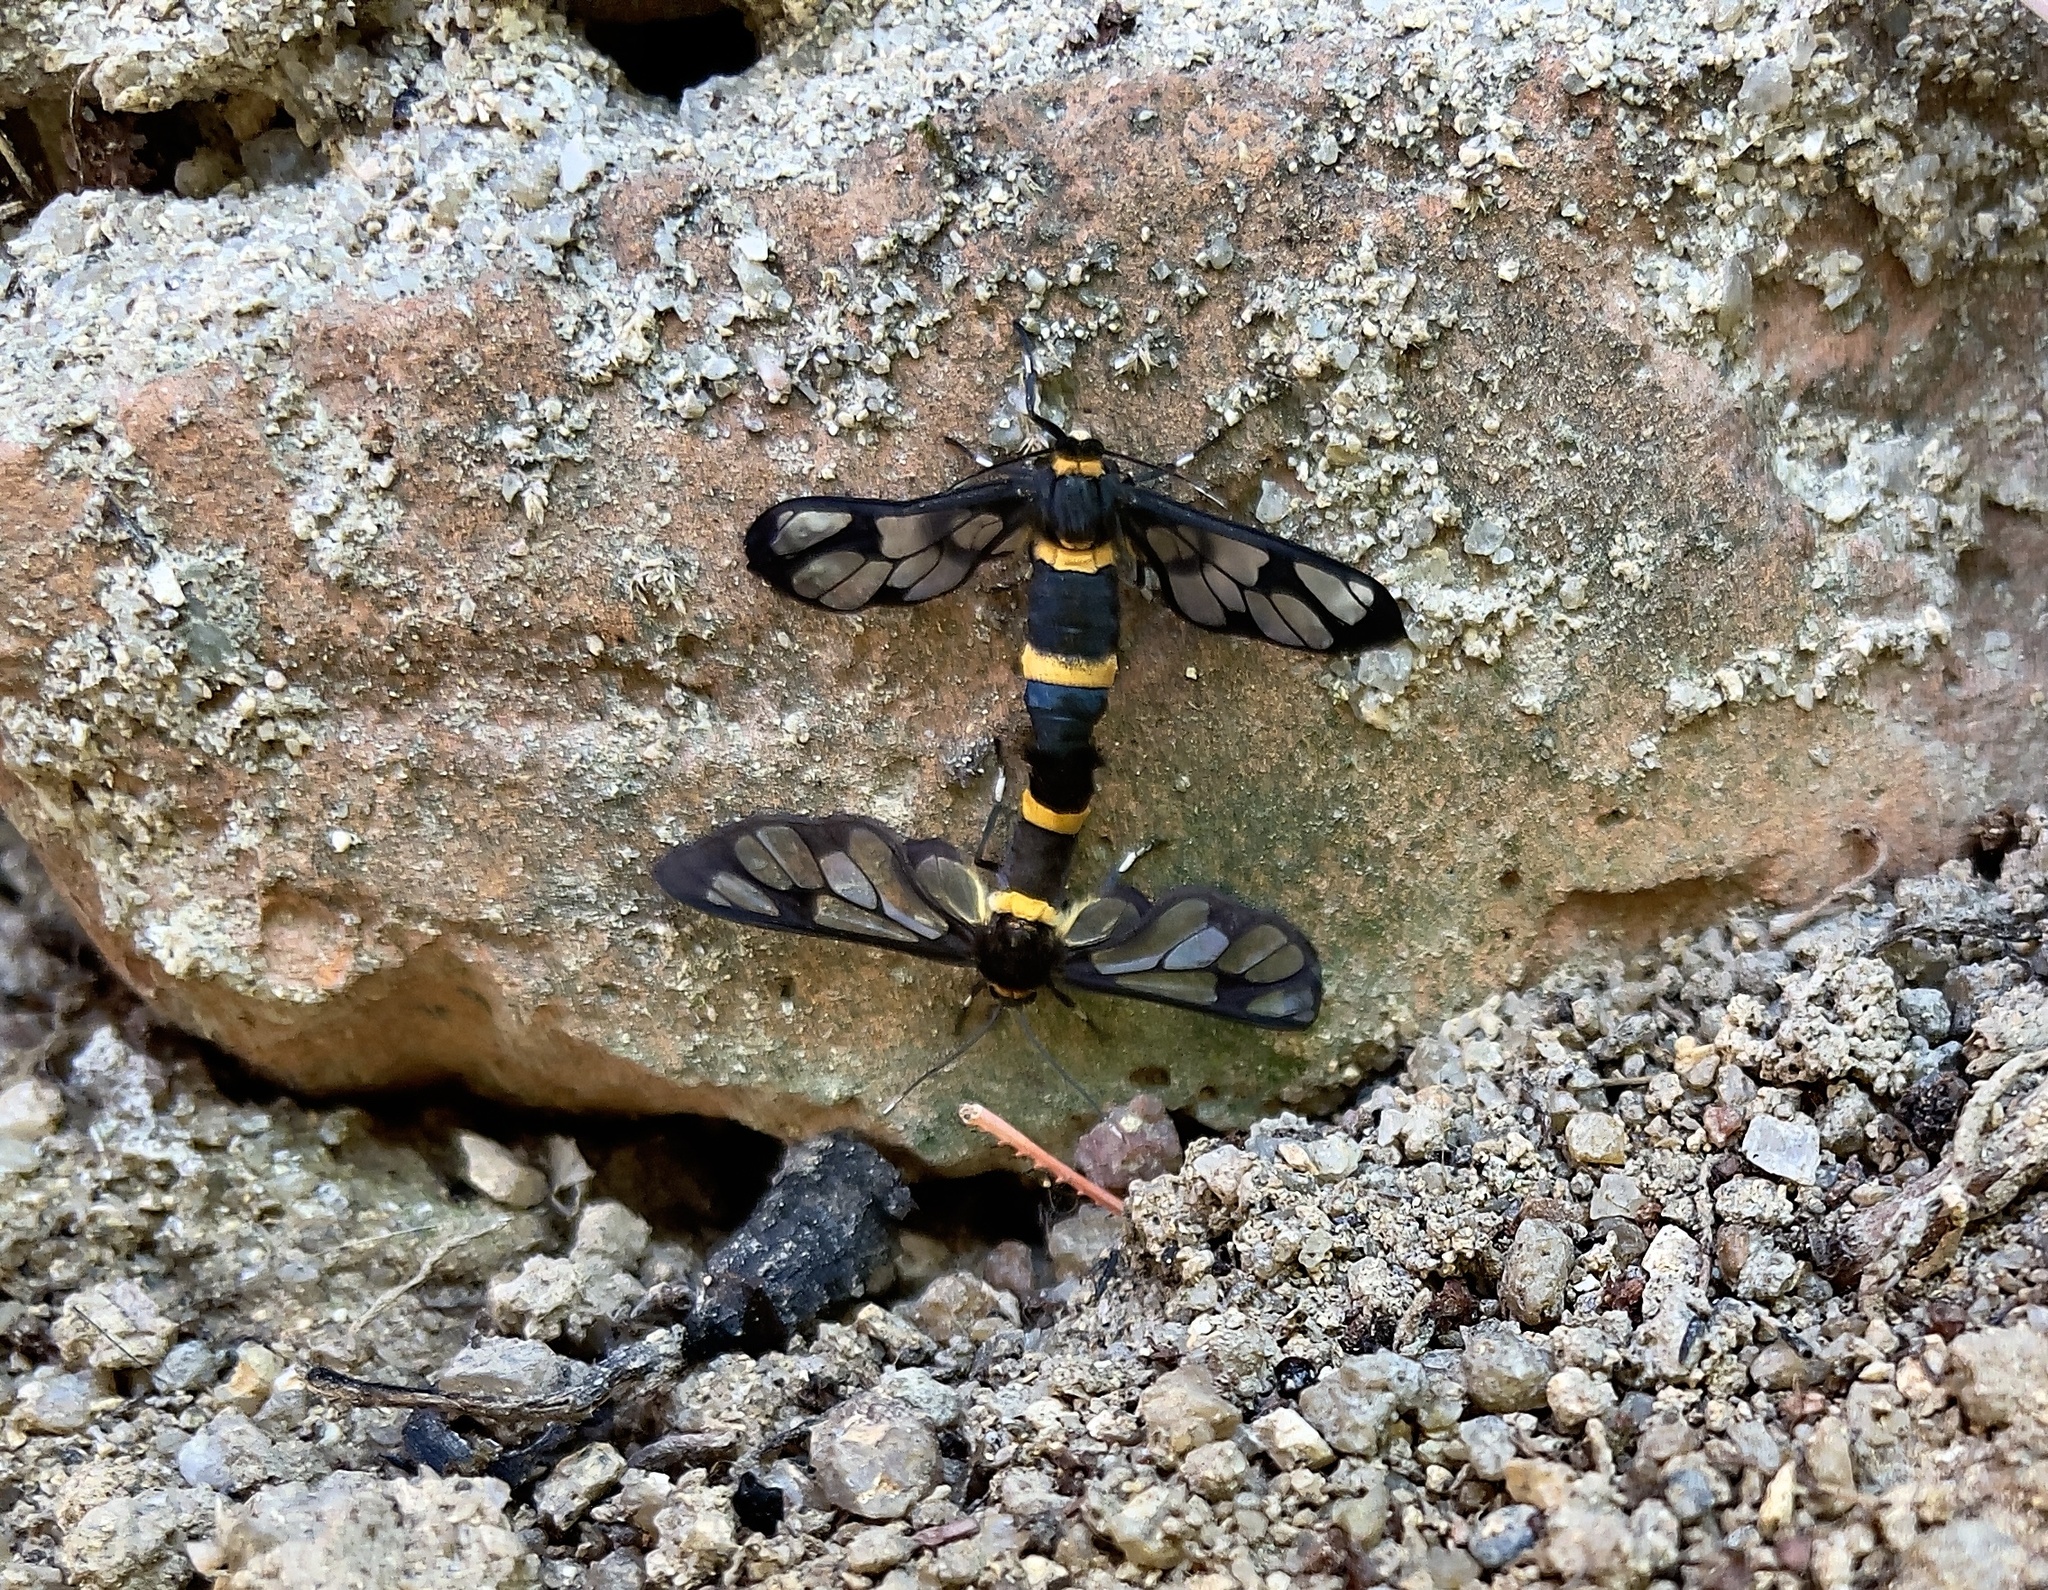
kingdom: Animalia
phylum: Arthropoda
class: Insecta
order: Lepidoptera
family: Erebidae
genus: Syntomoides
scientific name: Syntomoides imaon
